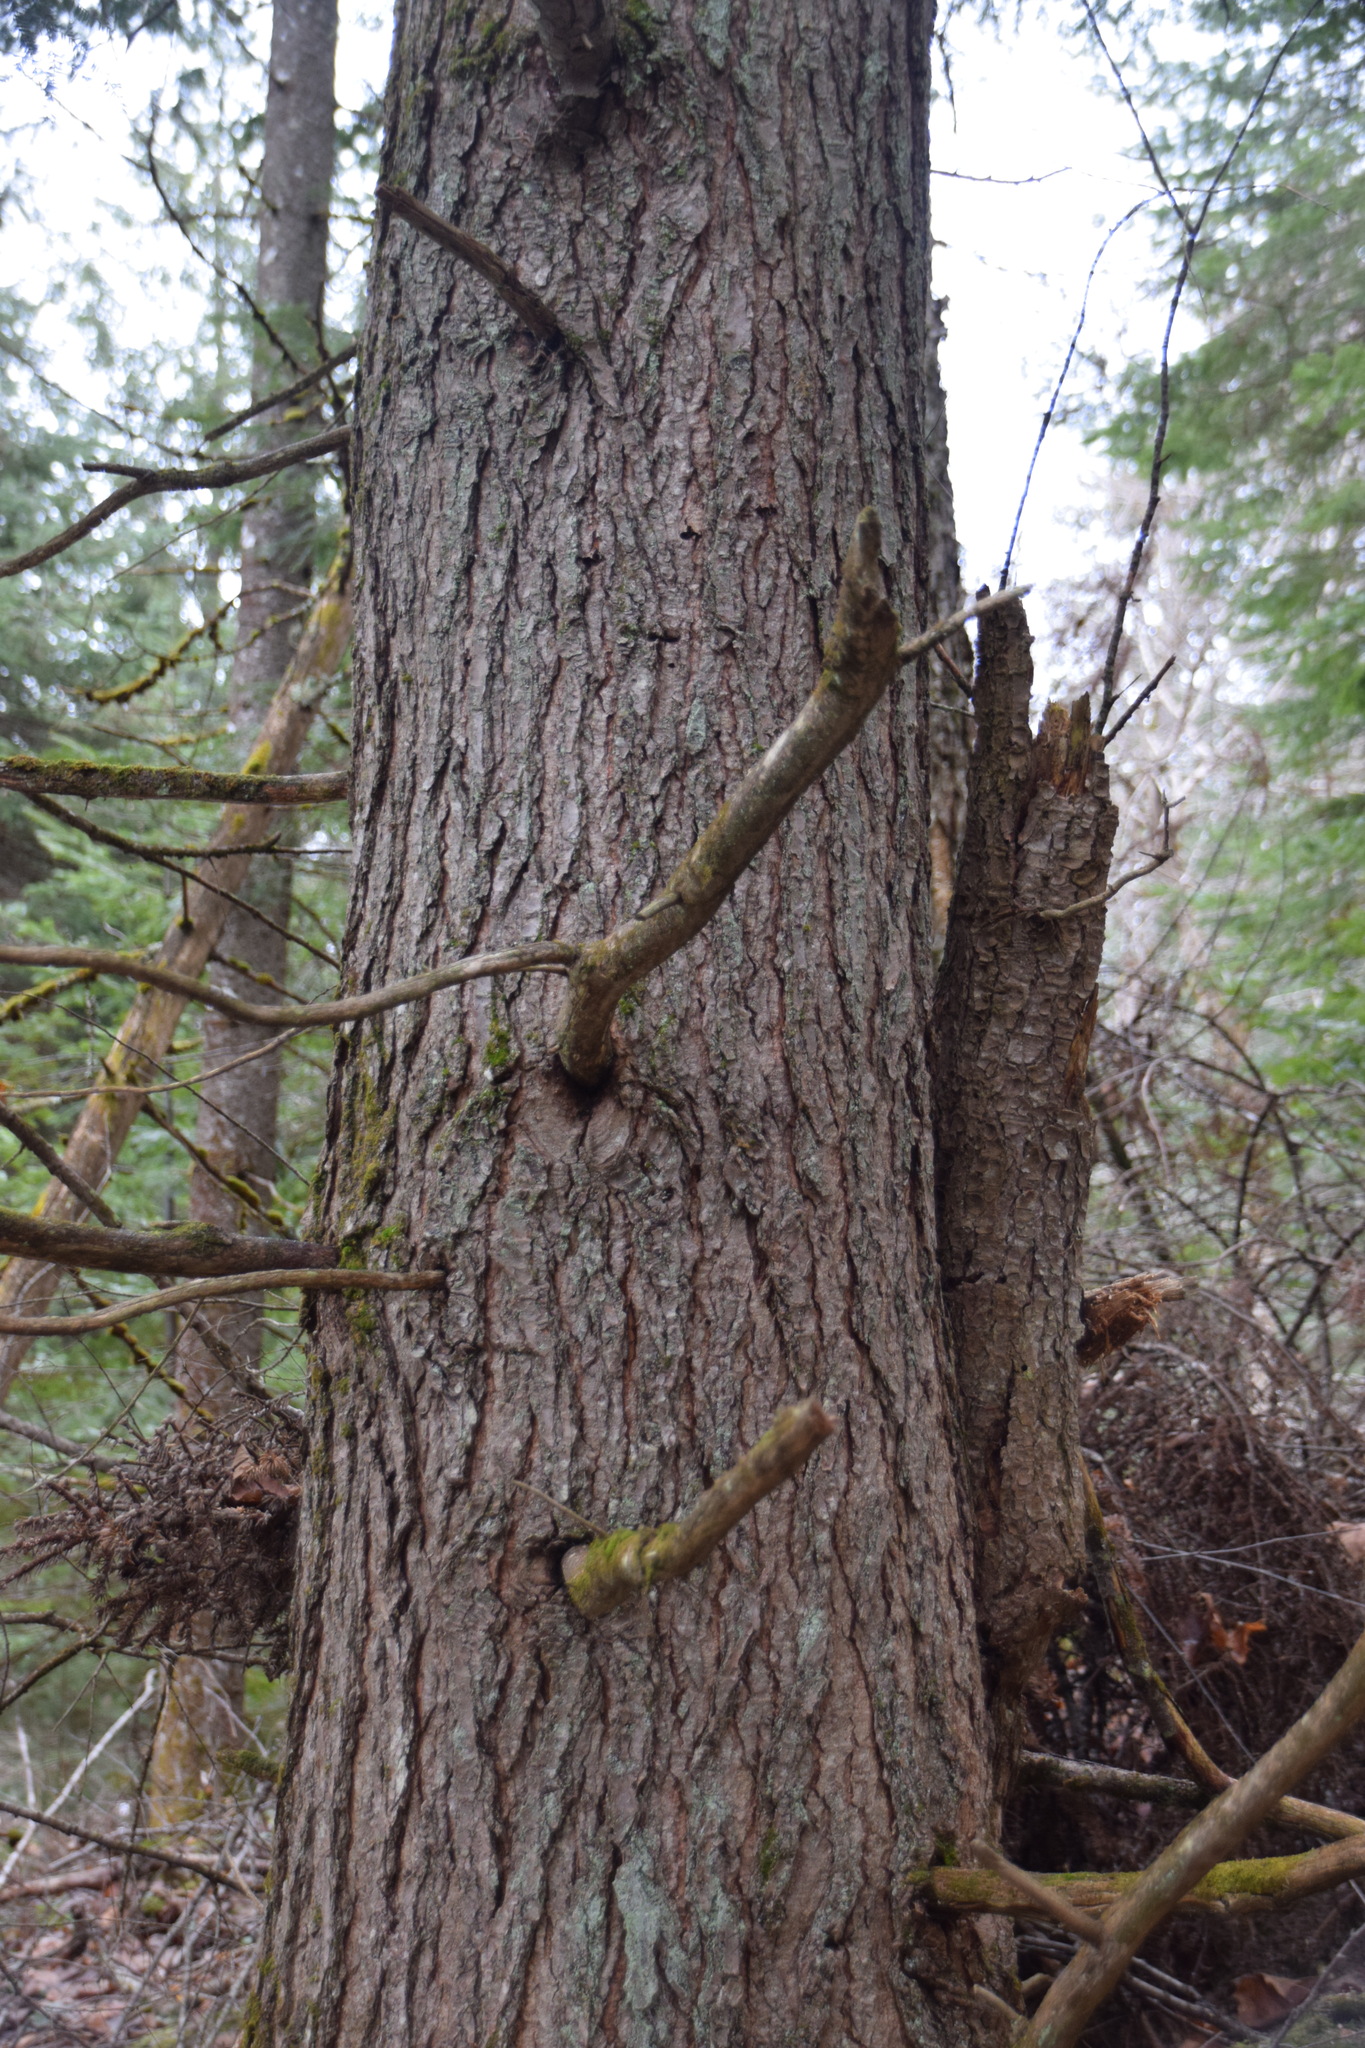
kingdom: Plantae
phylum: Tracheophyta
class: Pinopsida
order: Pinales
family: Pinaceae
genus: Tsuga
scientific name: Tsuga canadensis
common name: Eastern hemlock
